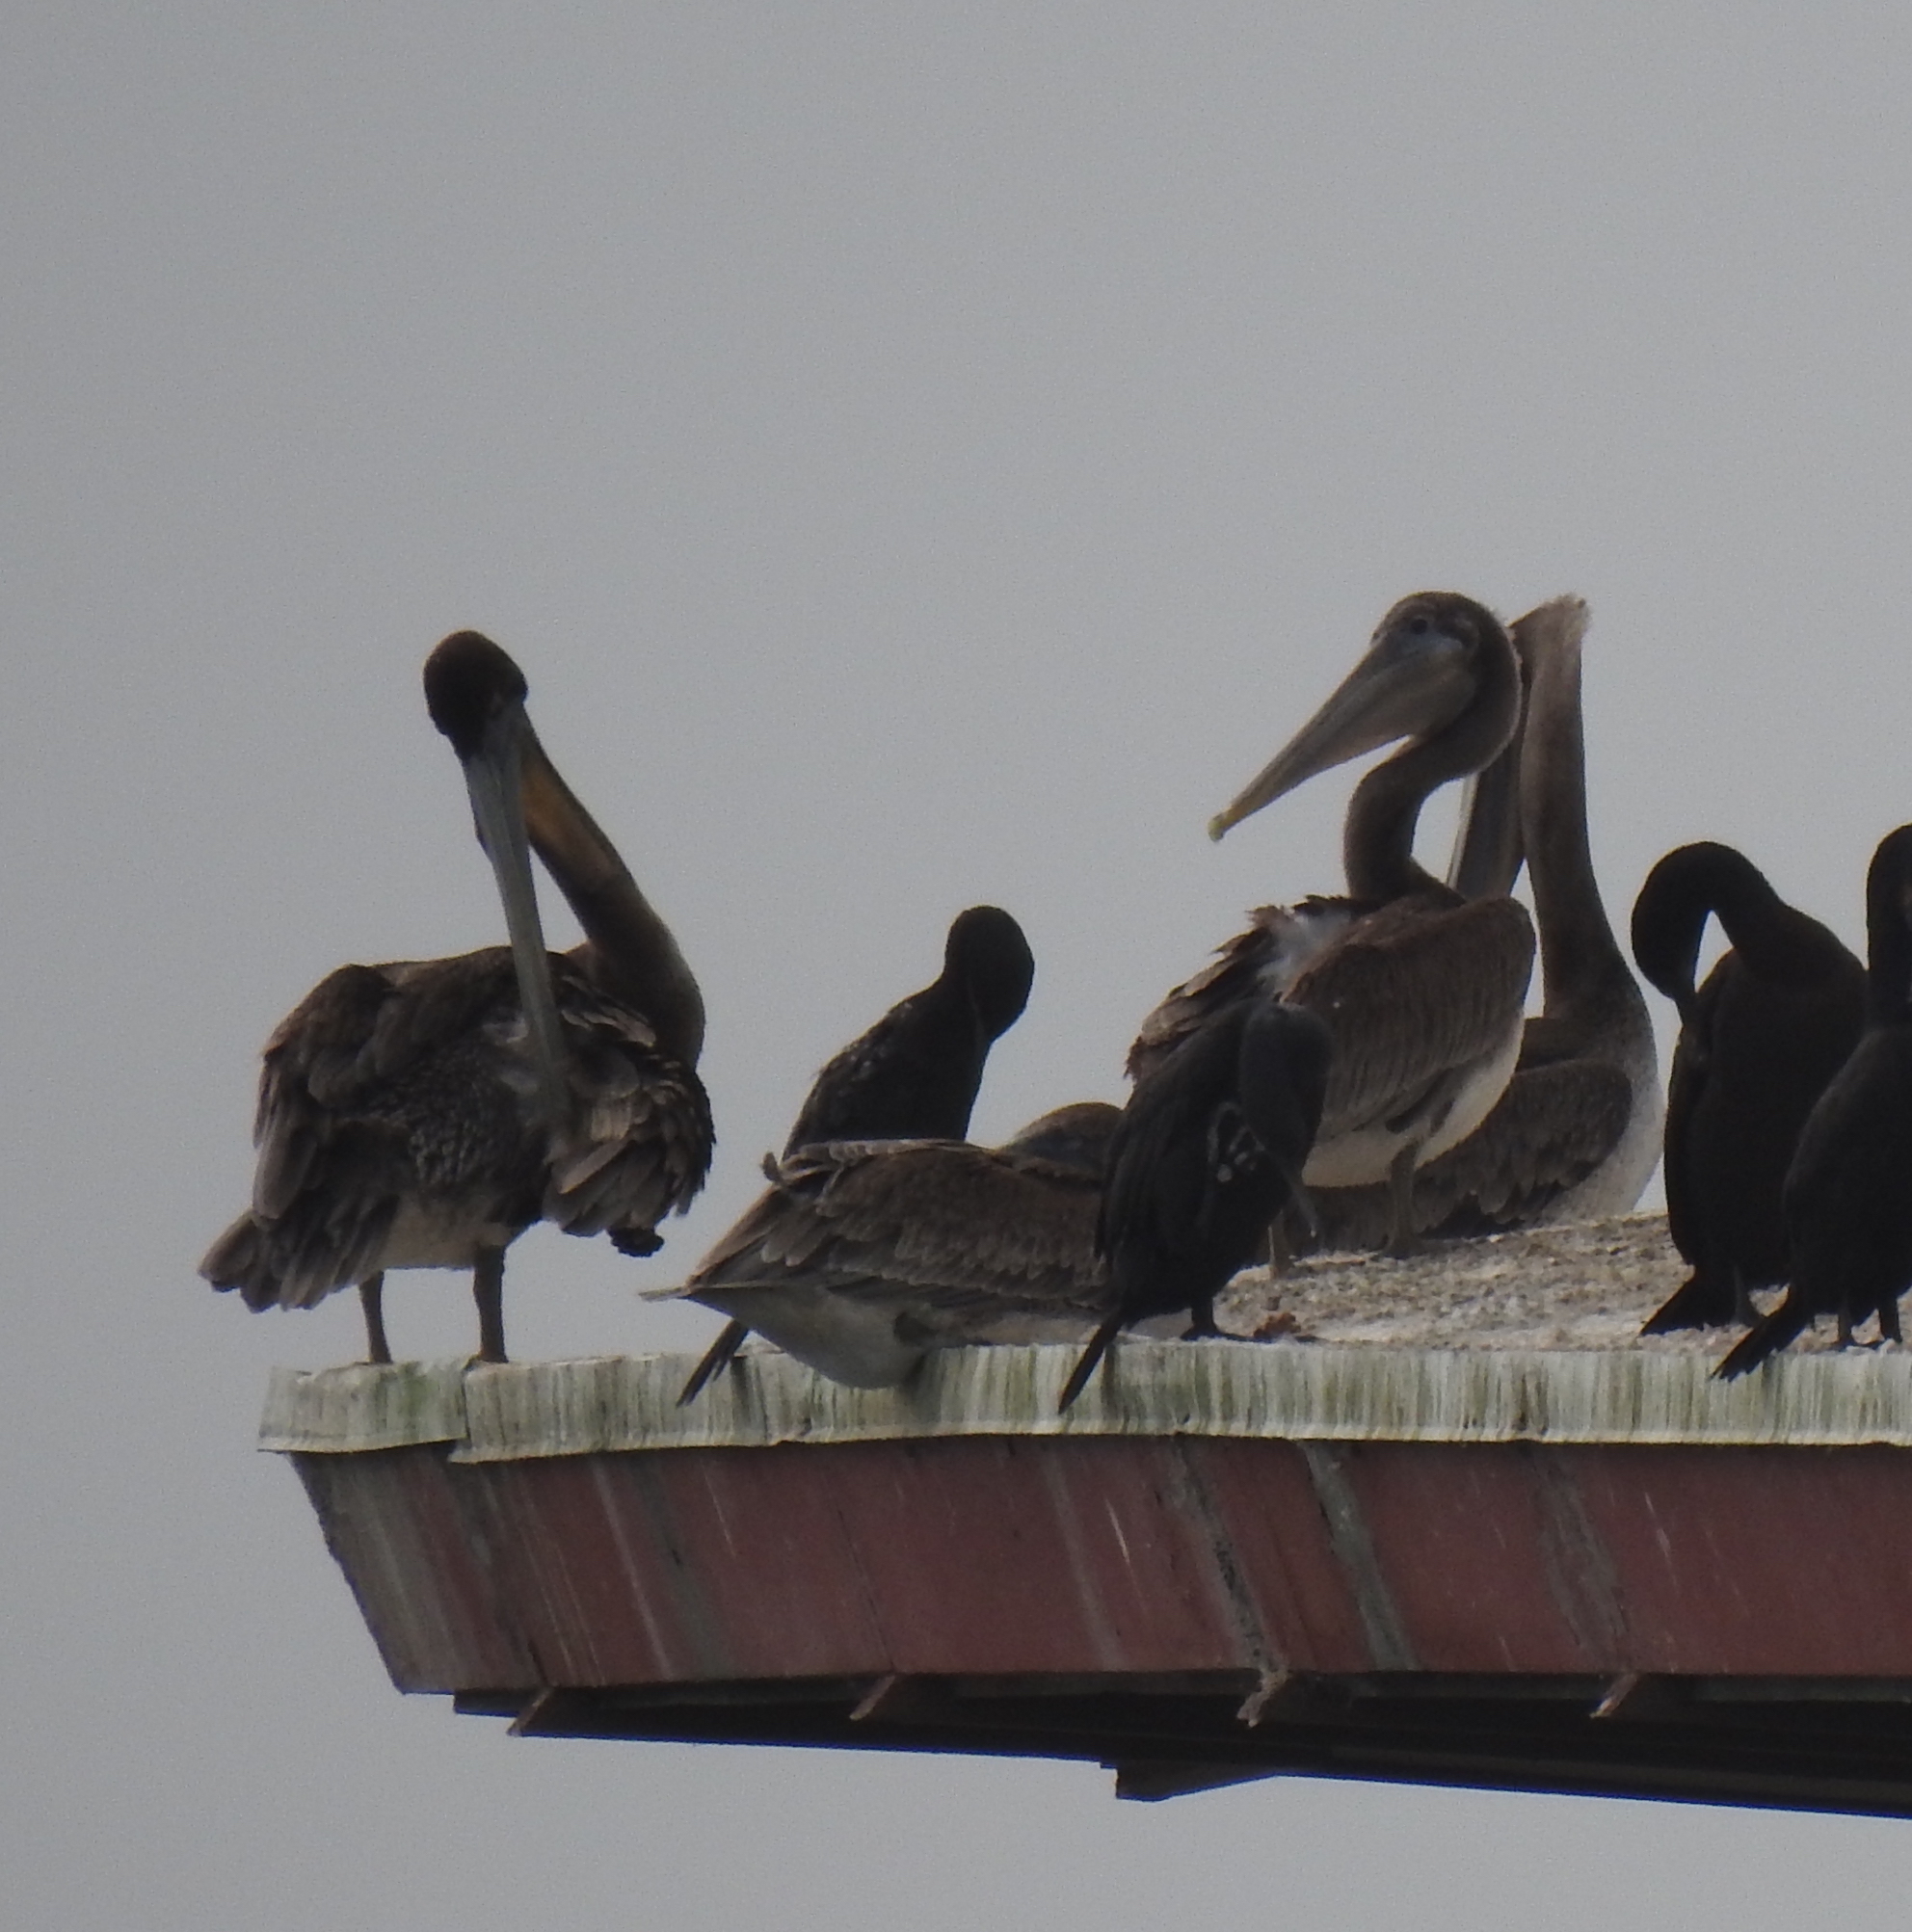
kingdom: Animalia
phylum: Chordata
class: Aves
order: Pelecaniformes
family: Pelecanidae
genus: Pelecanus
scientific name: Pelecanus occidentalis
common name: Brown pelican
